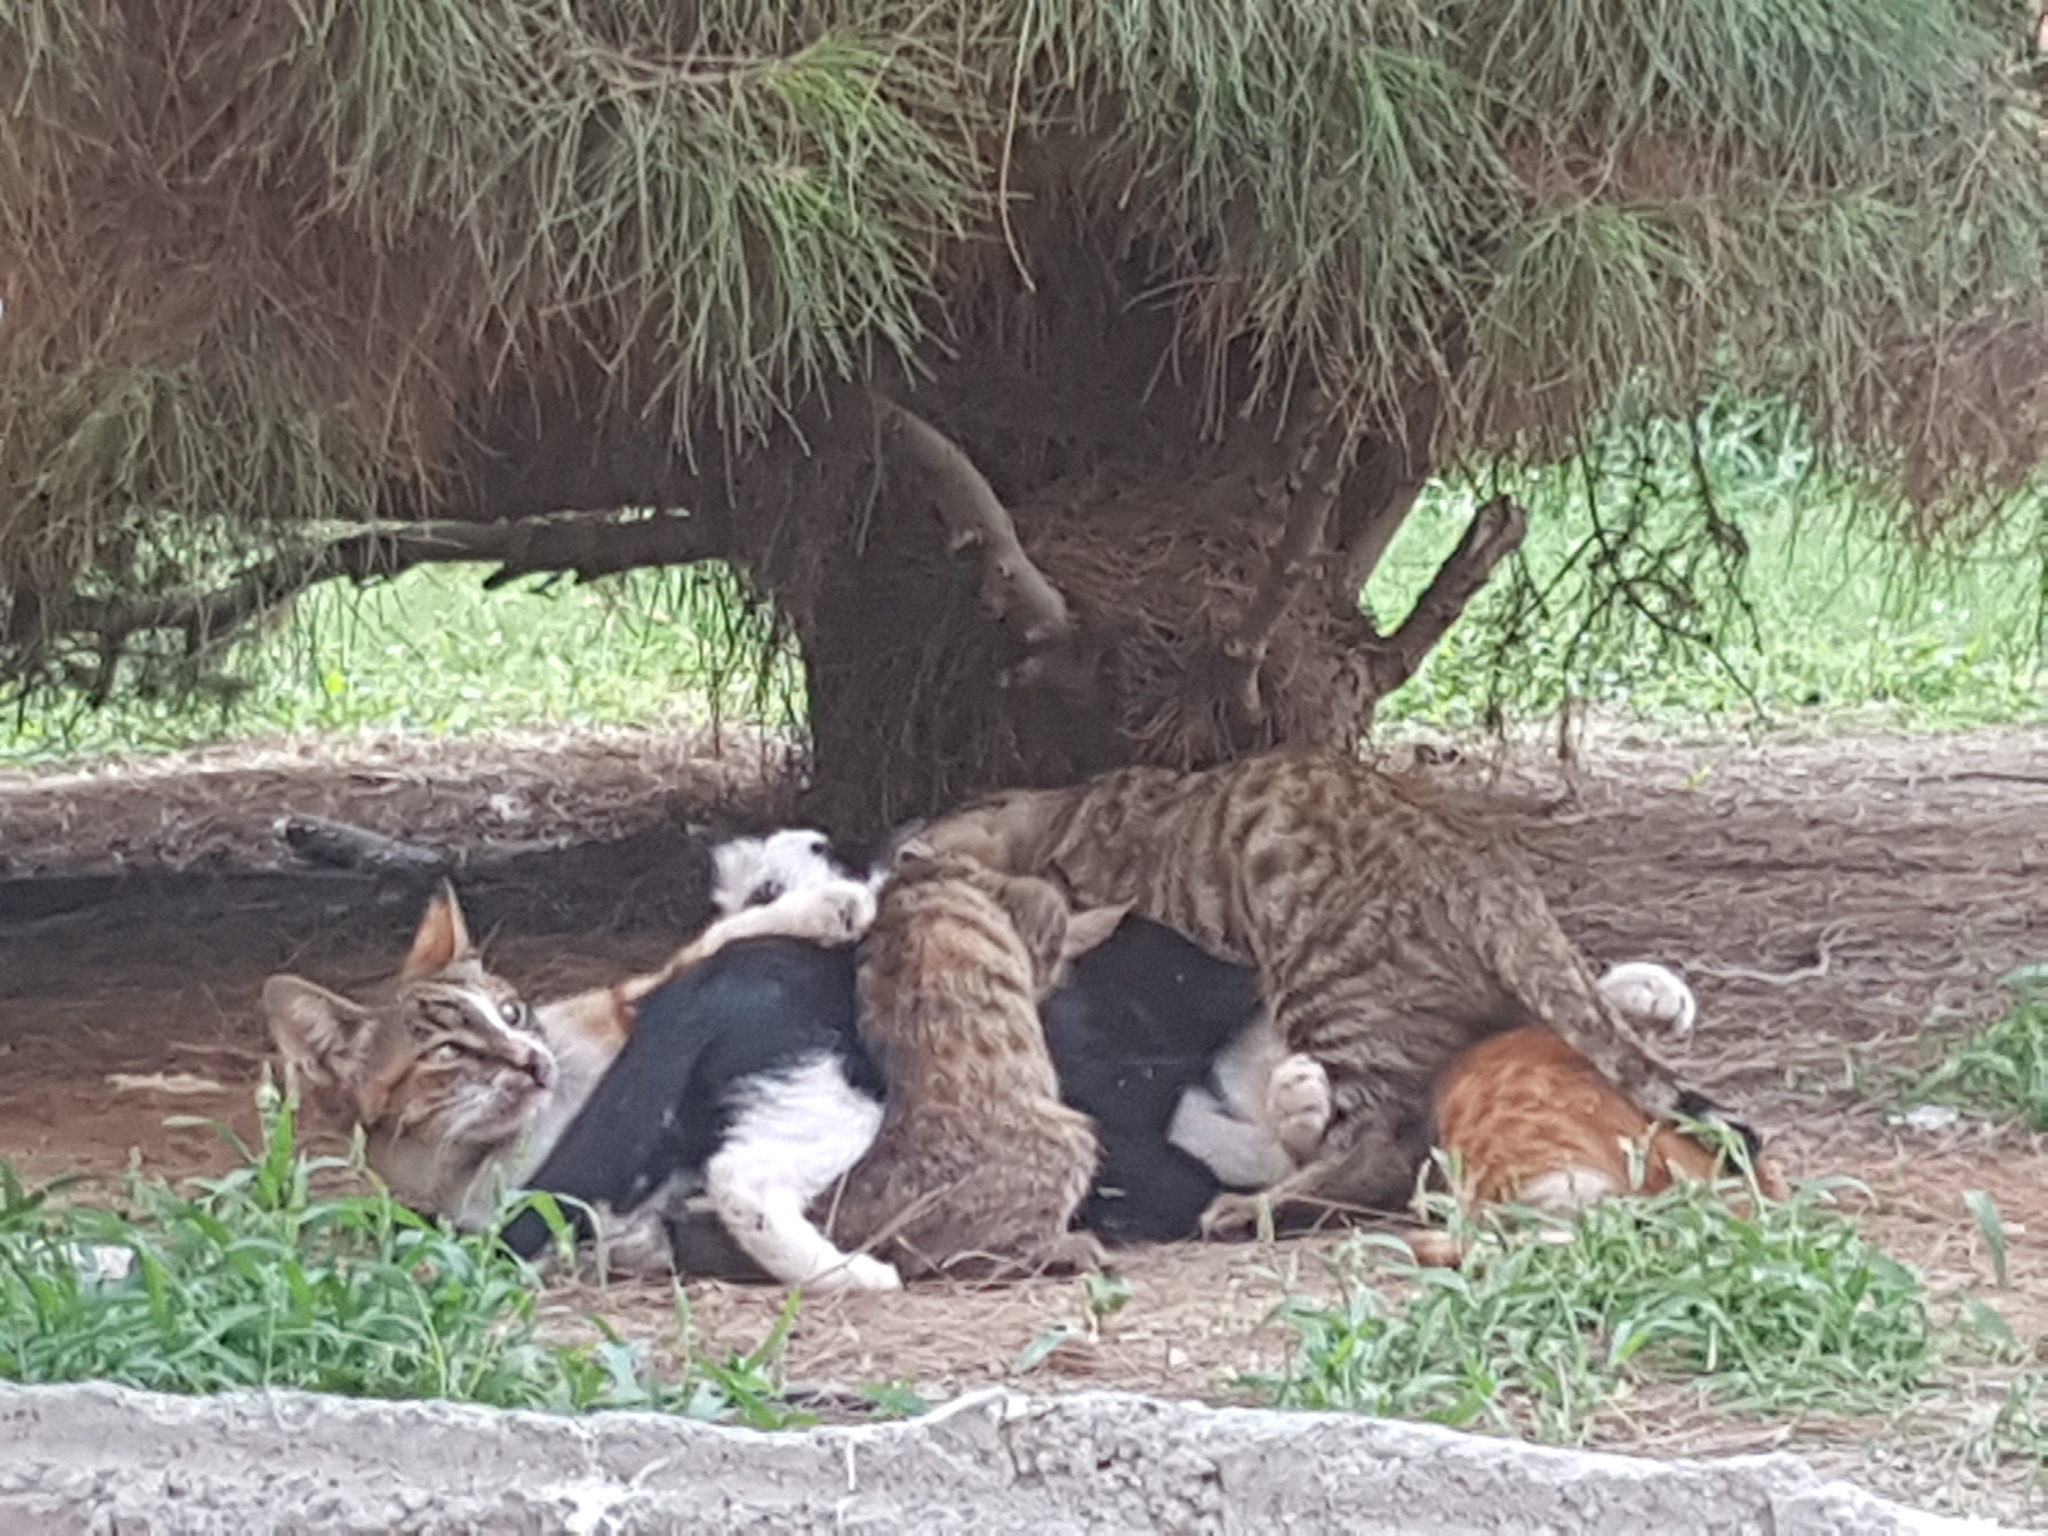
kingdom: Animalia
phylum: Chordata
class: Mammalia
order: Carnivora
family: Felidae
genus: Felis
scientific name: Felis catus
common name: Domestic cat
